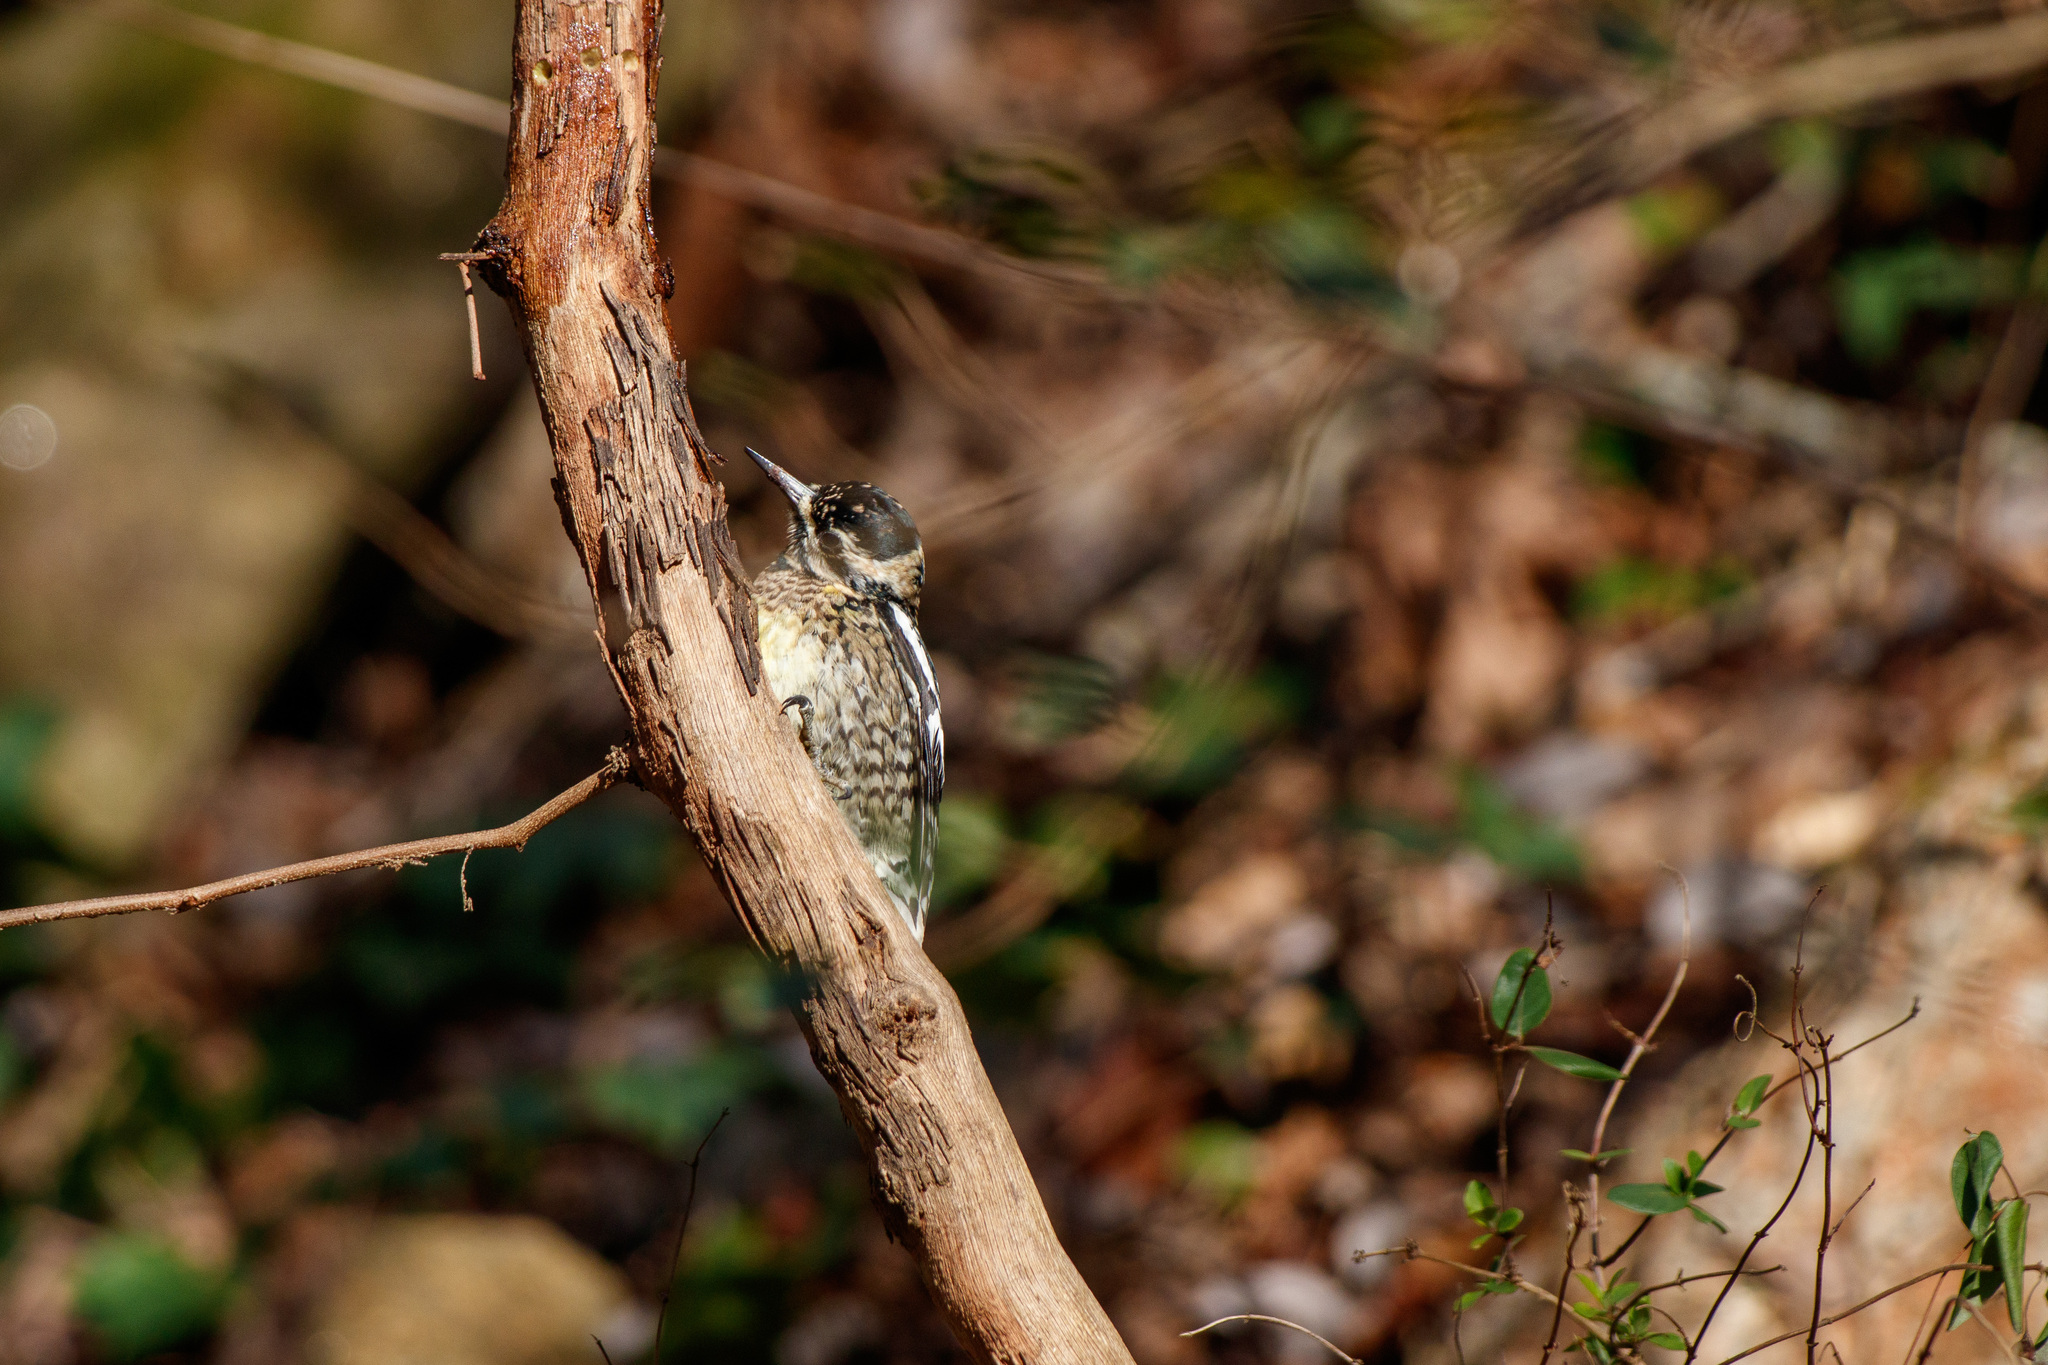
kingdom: Animalia
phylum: Chordata
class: Aves
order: Piciformes
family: Picidae
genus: Sphyrapicus
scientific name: Sphyrapicus varius
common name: Yellow-bellied sapsucker
